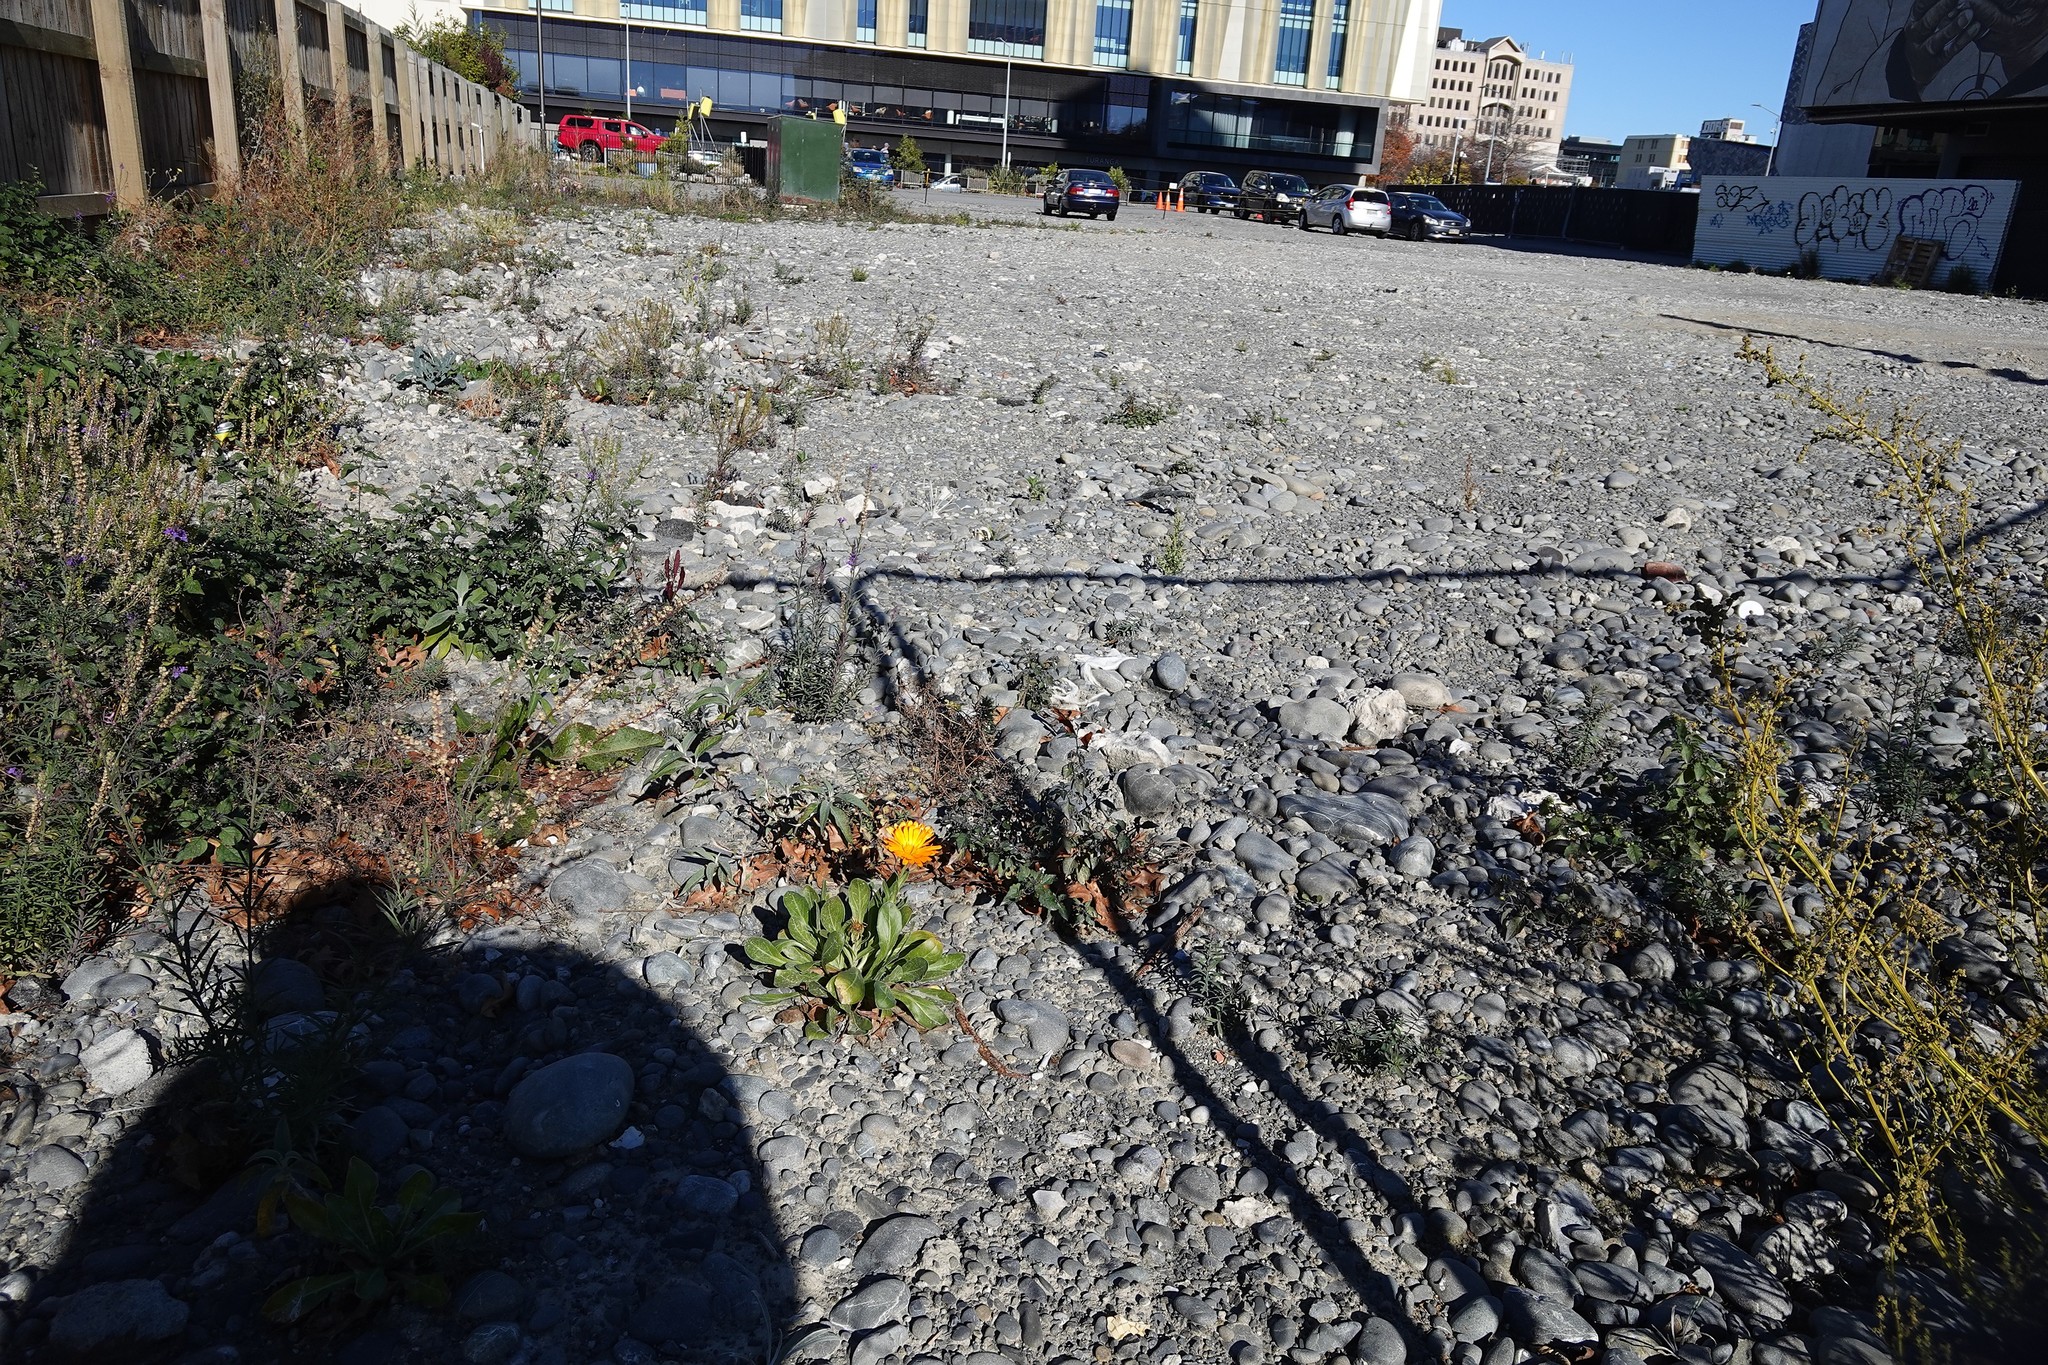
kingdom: Plantae
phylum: Tracheophyta
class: Magnoliopsida
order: Asterales
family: Asteraceae
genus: Calendula
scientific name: Calendula officinalis
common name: Pot marigold
